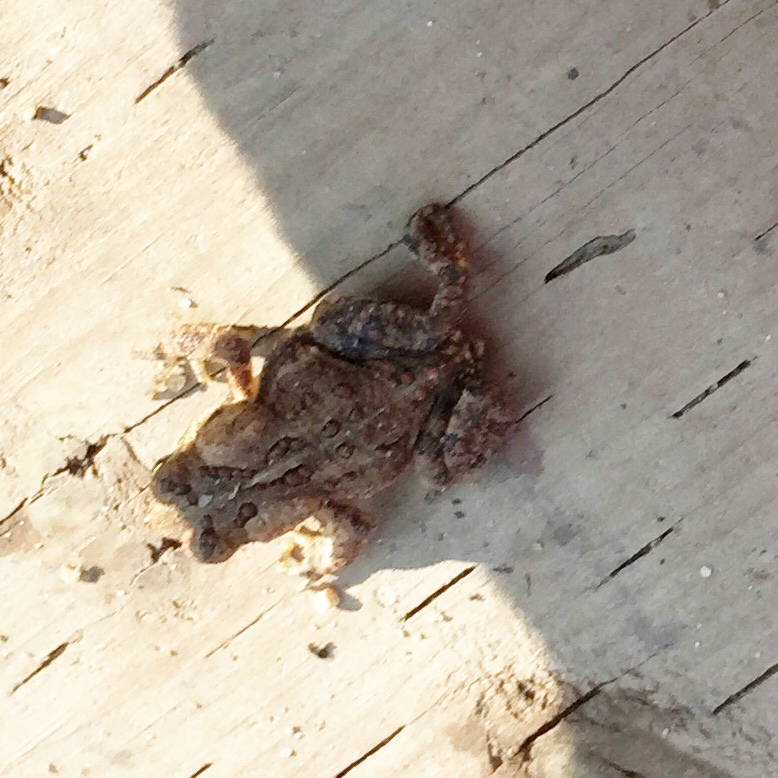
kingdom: Animalia
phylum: Chordata
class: Amphibia
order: Anura
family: Bufonidae
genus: Anaxyrus
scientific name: Anaxyrus americanus
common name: American toad
